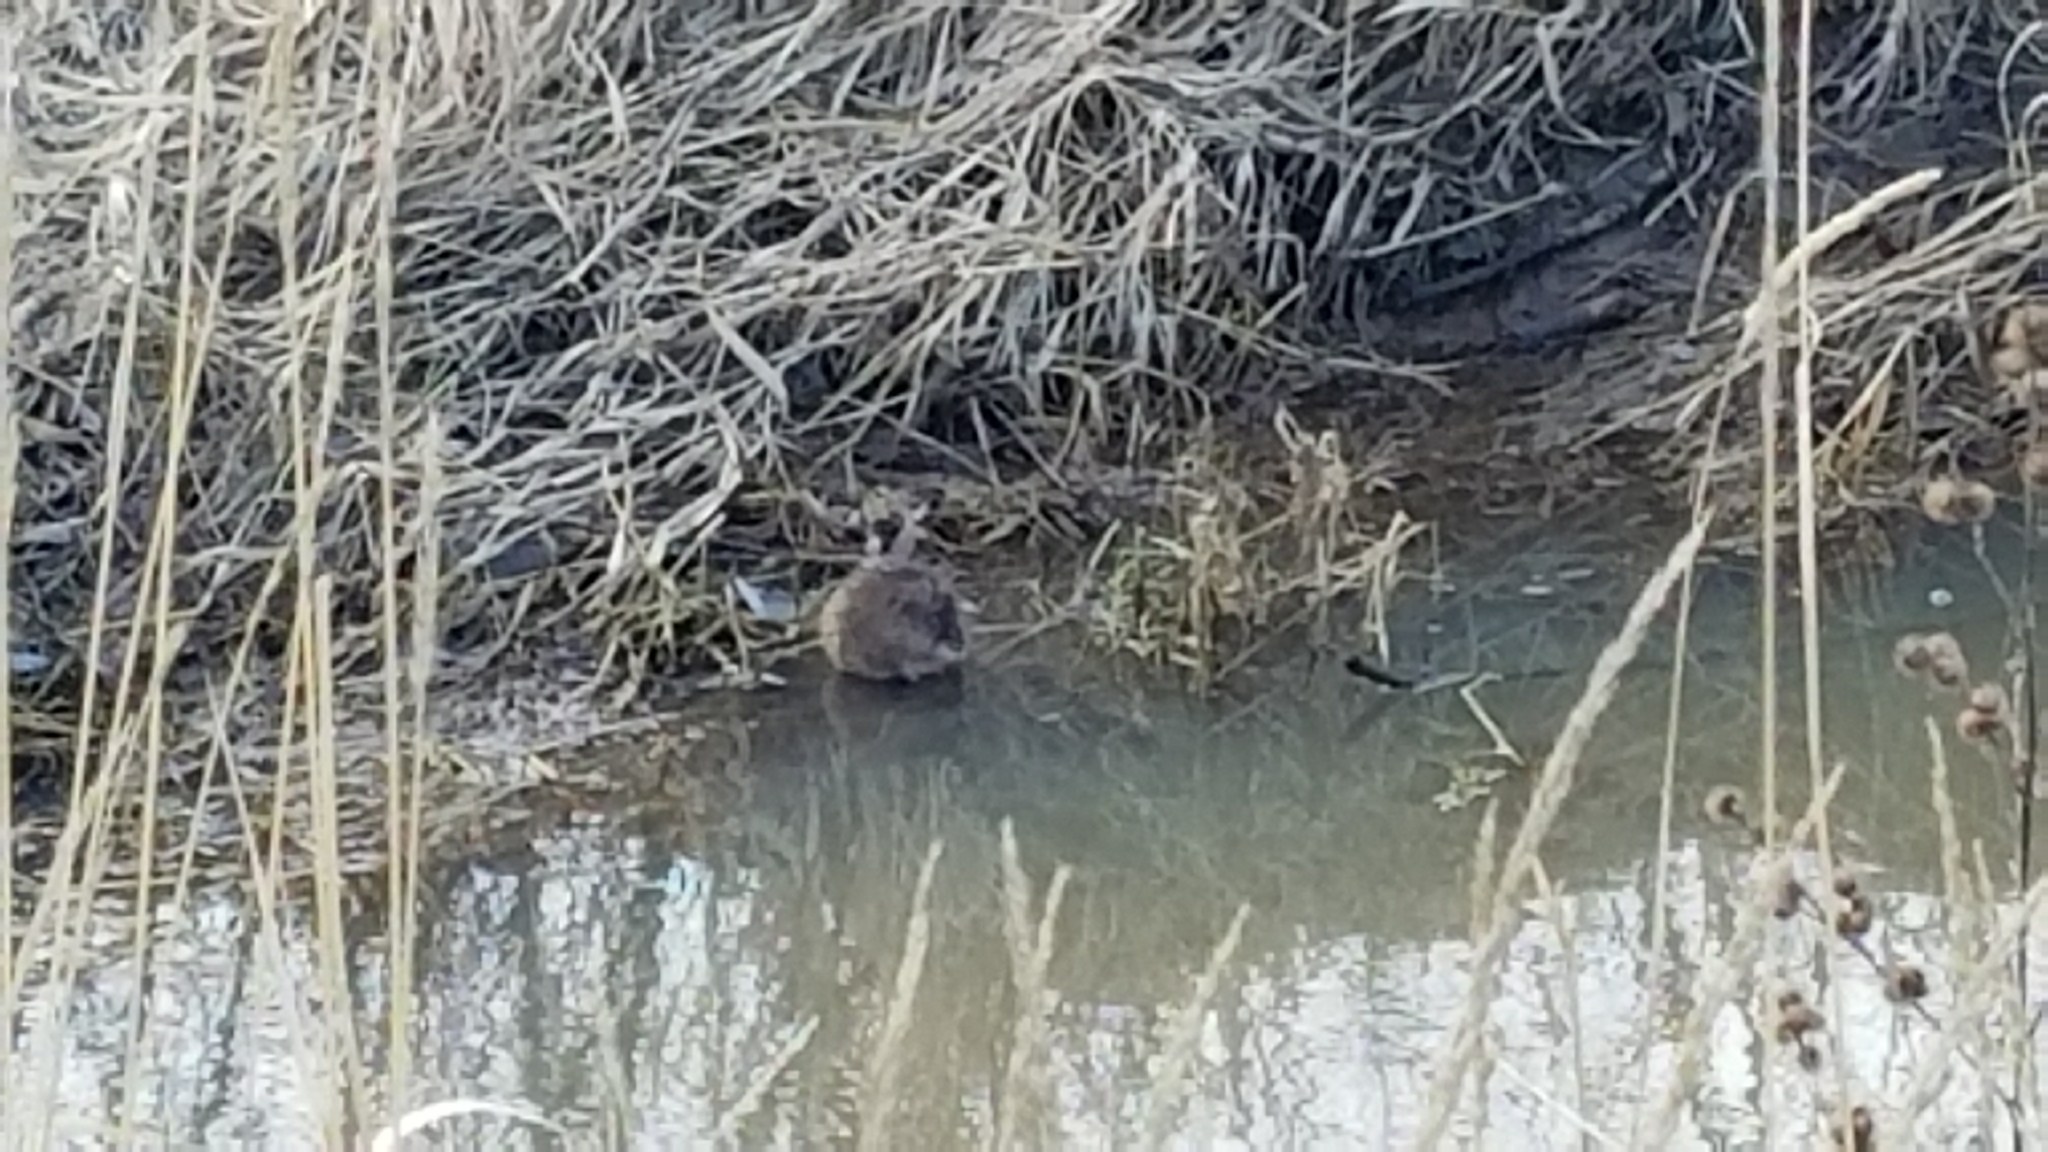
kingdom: Animalia
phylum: Chordata
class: Mammalia
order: Rodentia
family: Cricetidae
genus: Ondatra
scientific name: Ondatra zibethicus
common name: Muskrat
